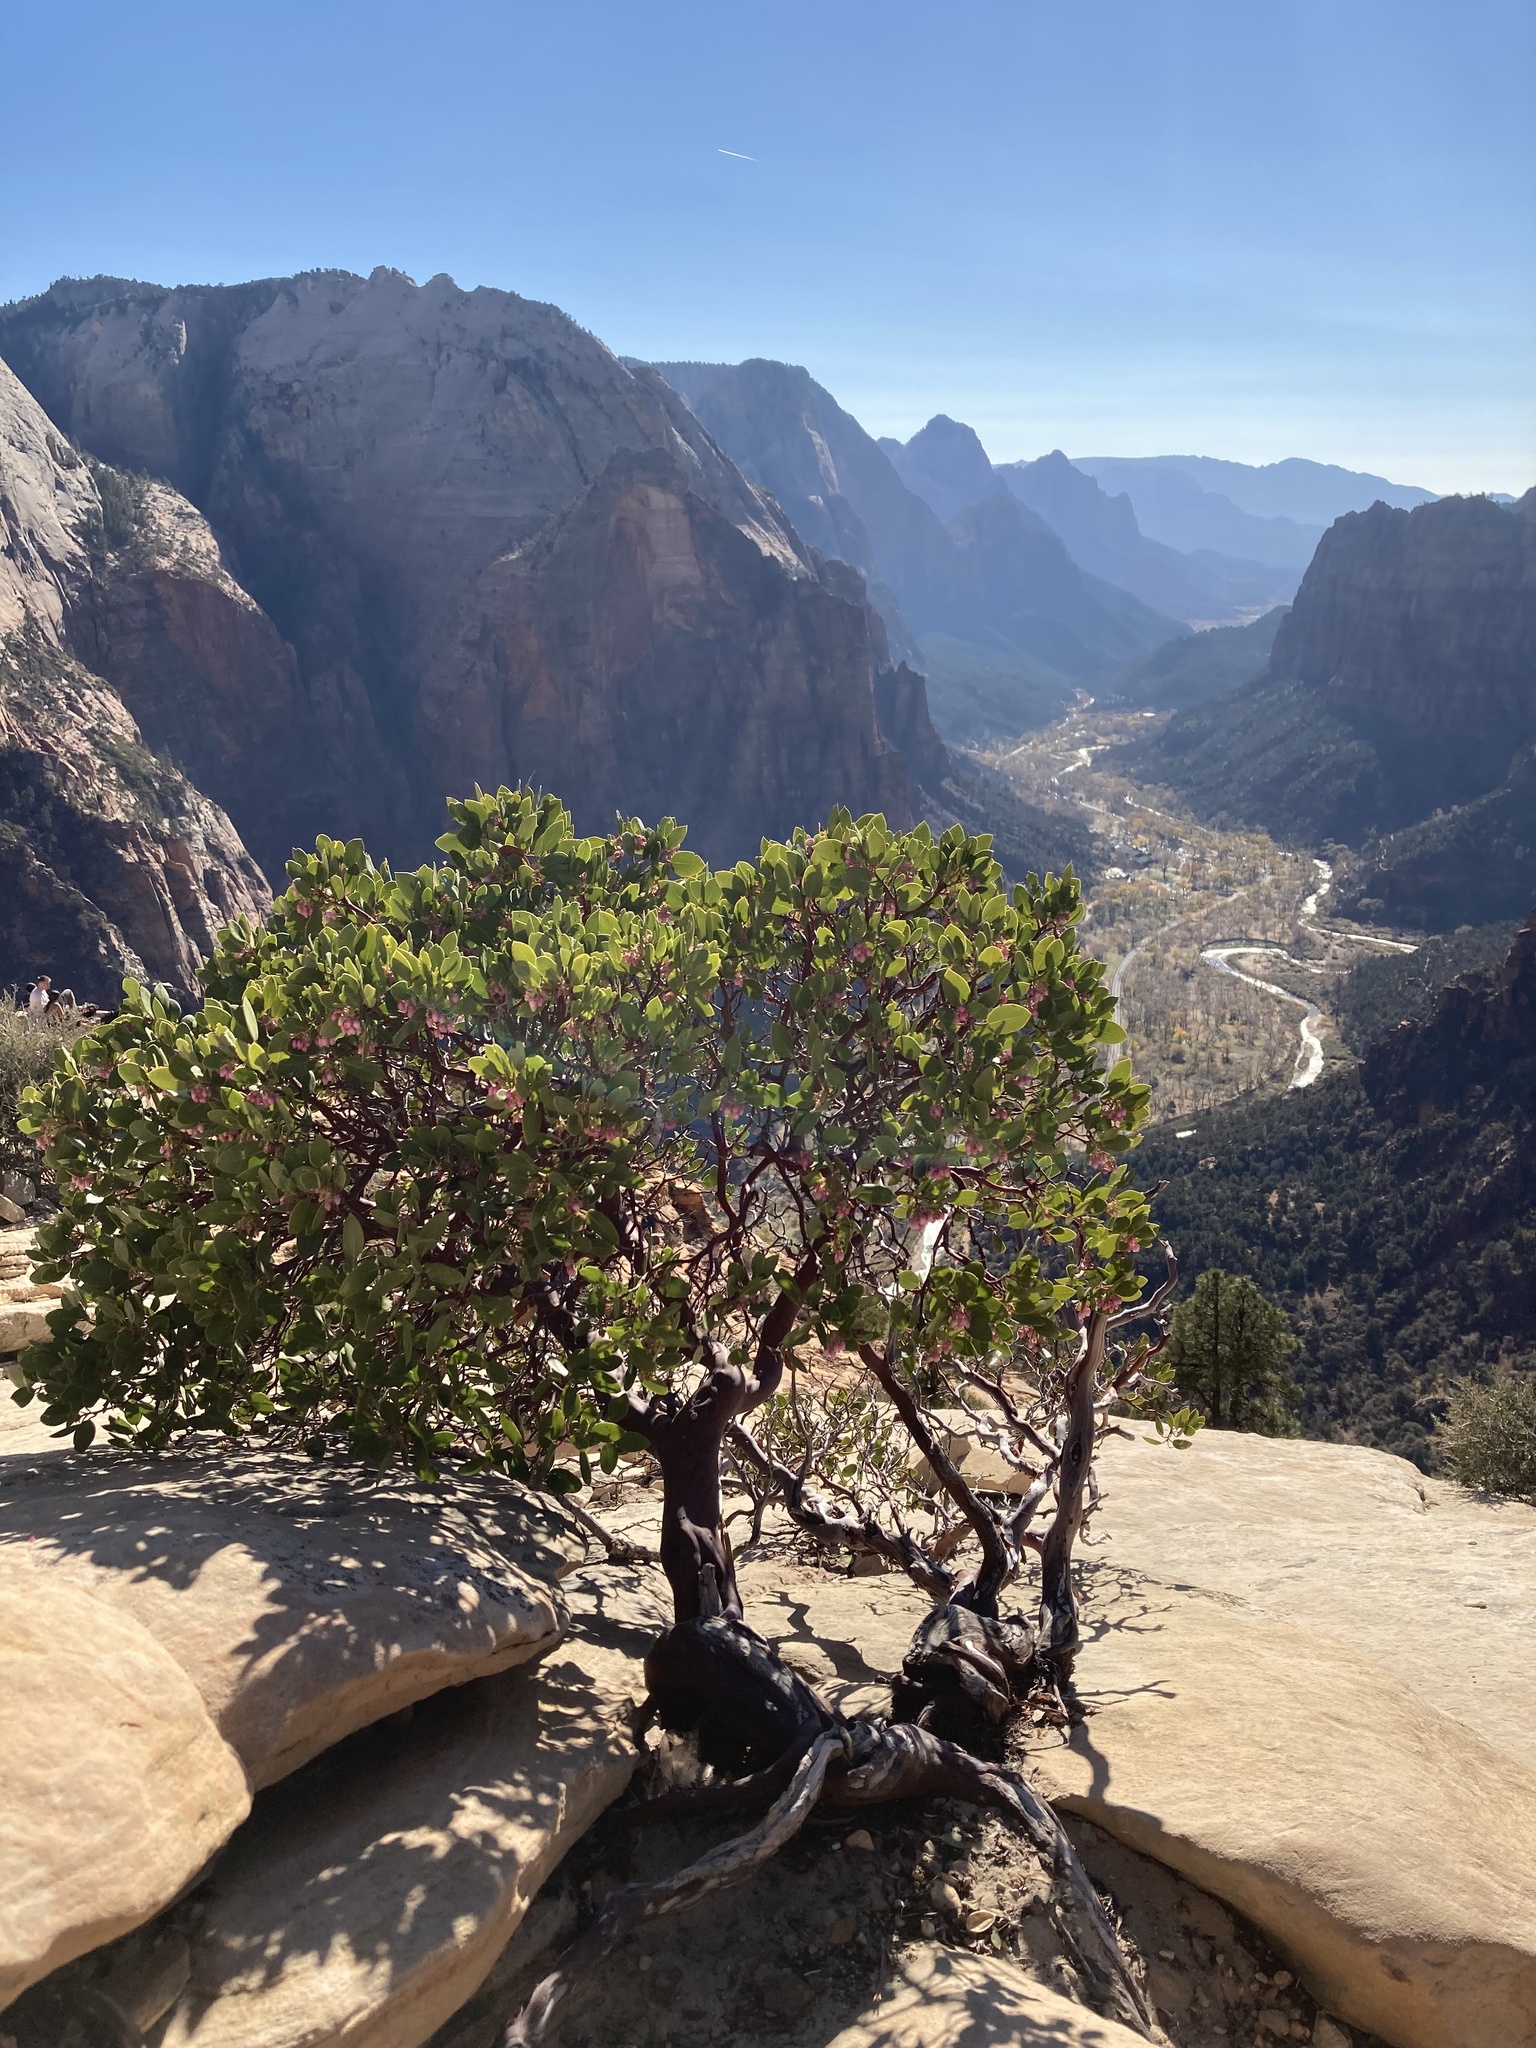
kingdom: Plantae
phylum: Tracheophyta
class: Magnoliopsida
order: Ericales
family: Ericaceae
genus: Arctostaphylos
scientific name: Arctostaphylos patula
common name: Green-leaf manzanita
